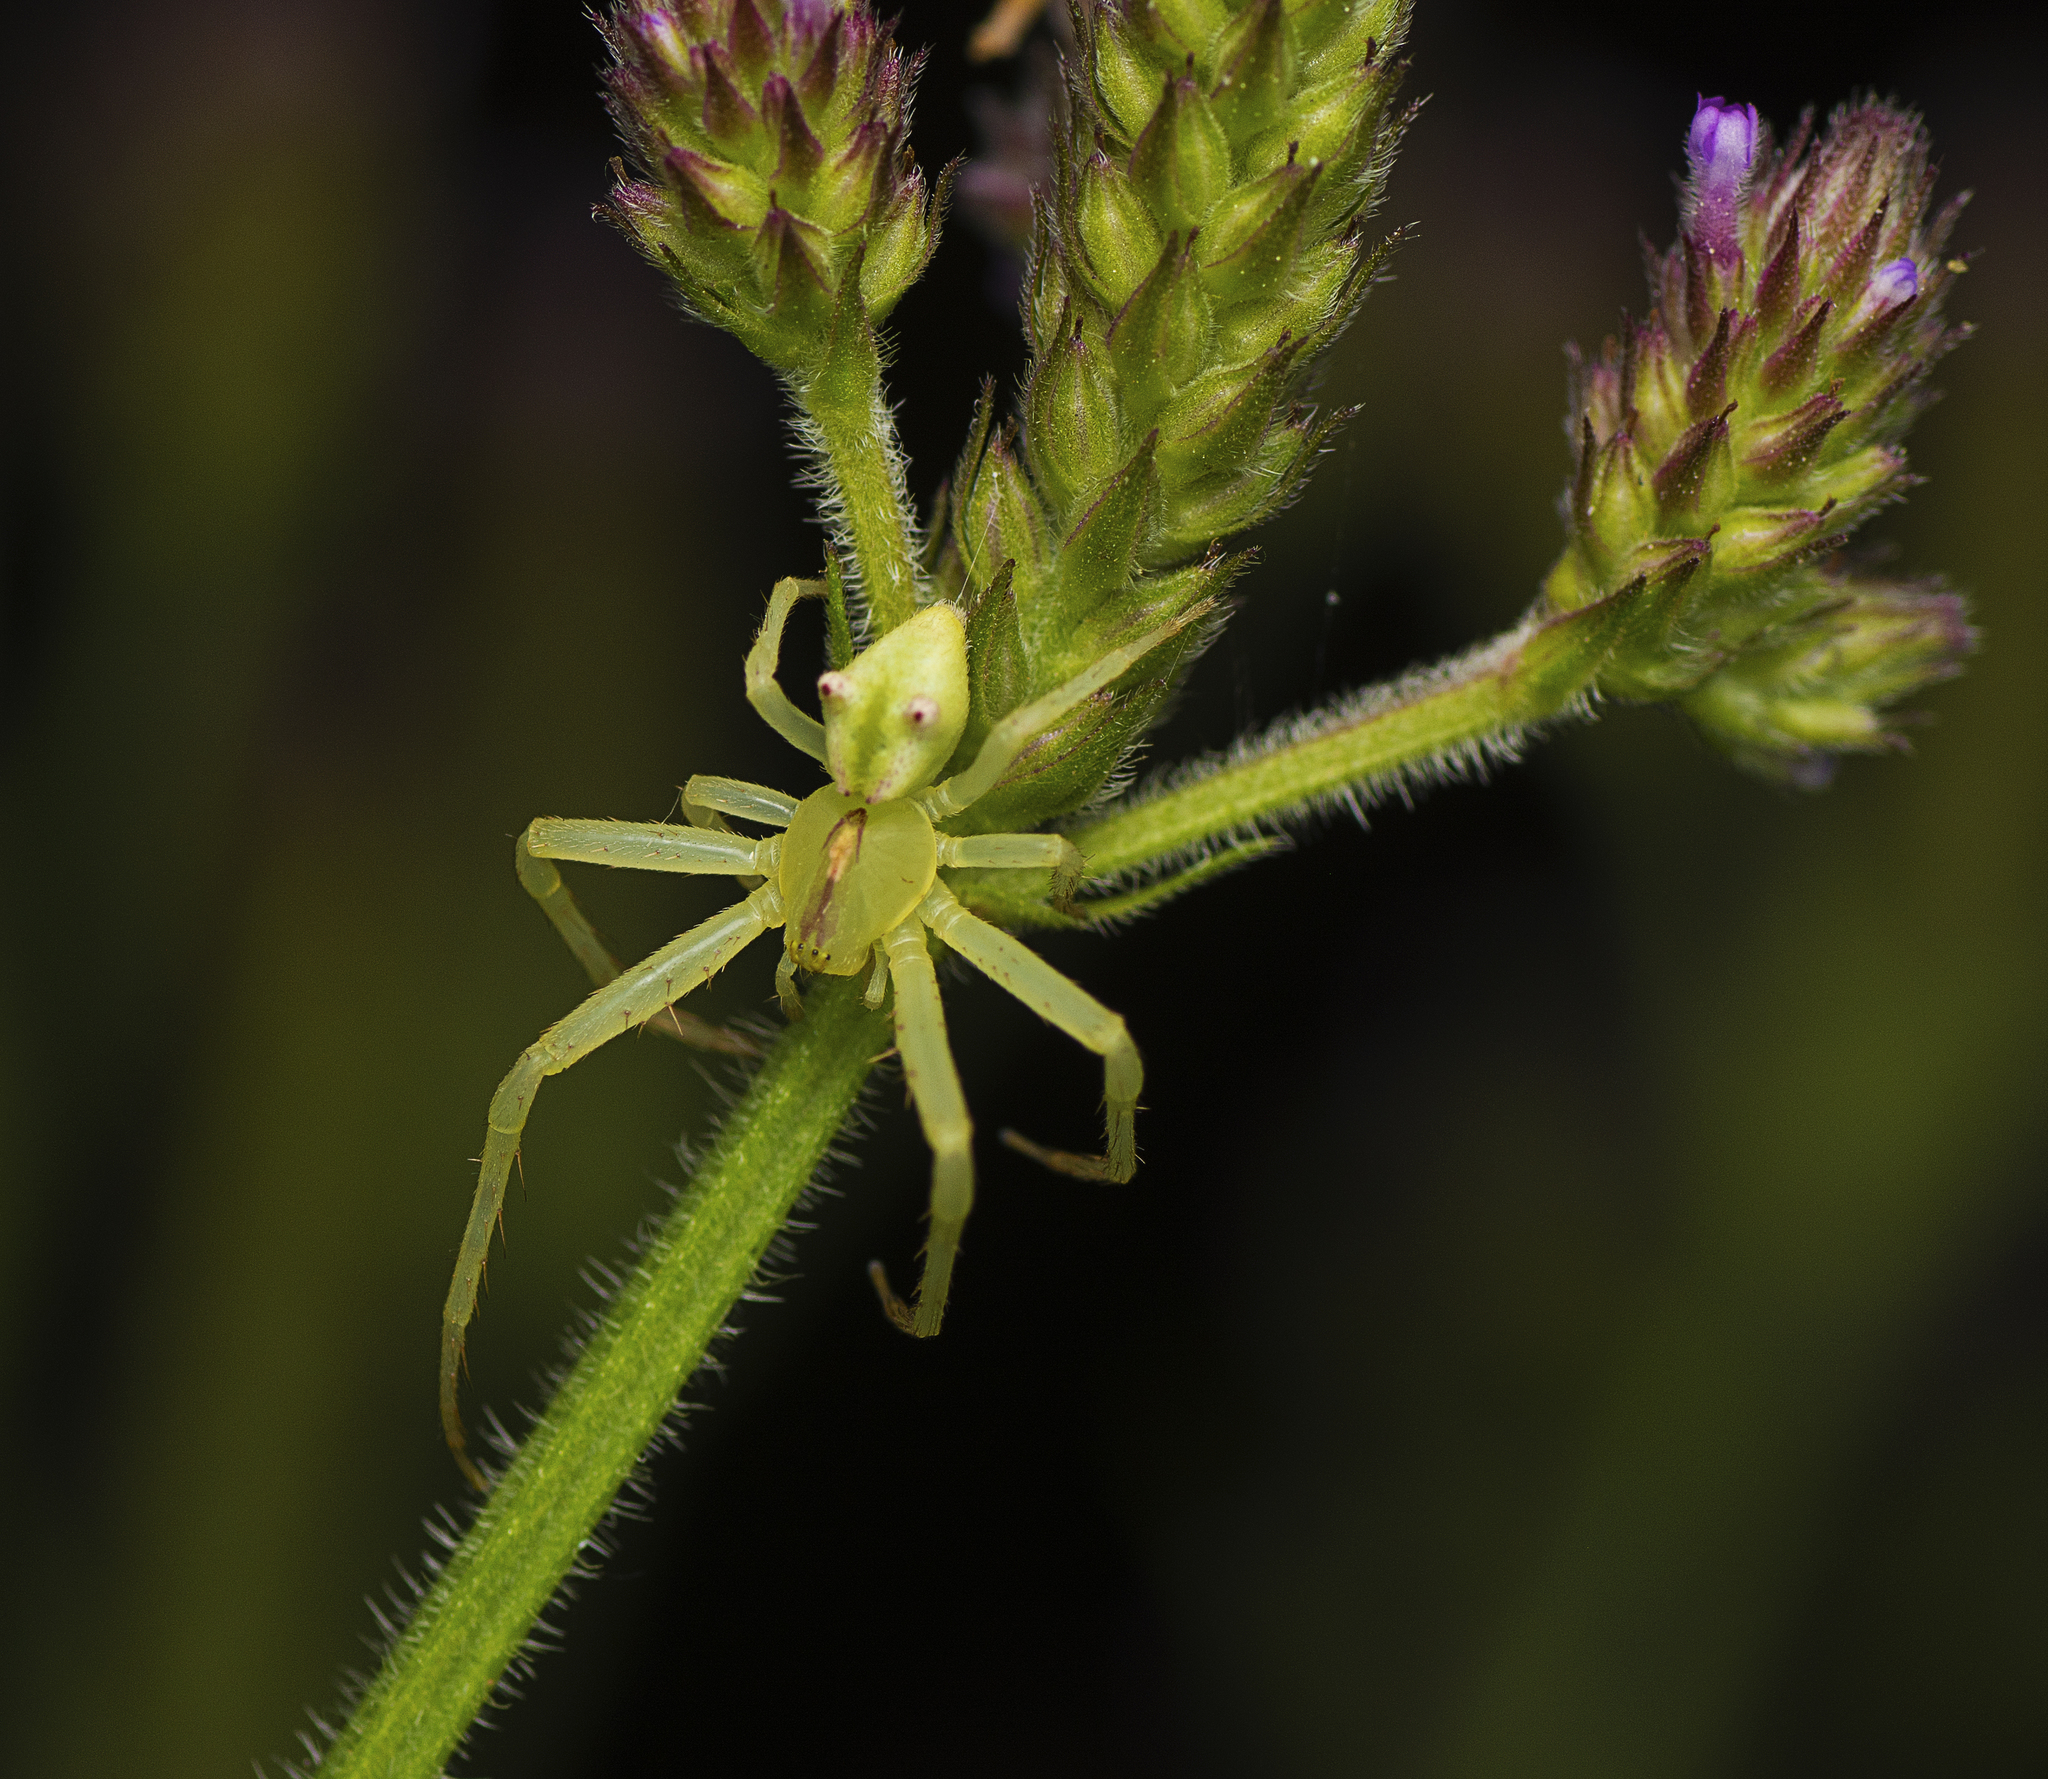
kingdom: Animalia
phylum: Arthropoda
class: Arachnida
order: Araneae
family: Thomisidae
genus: Sidymella
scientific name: Sidymella rubrosignata
